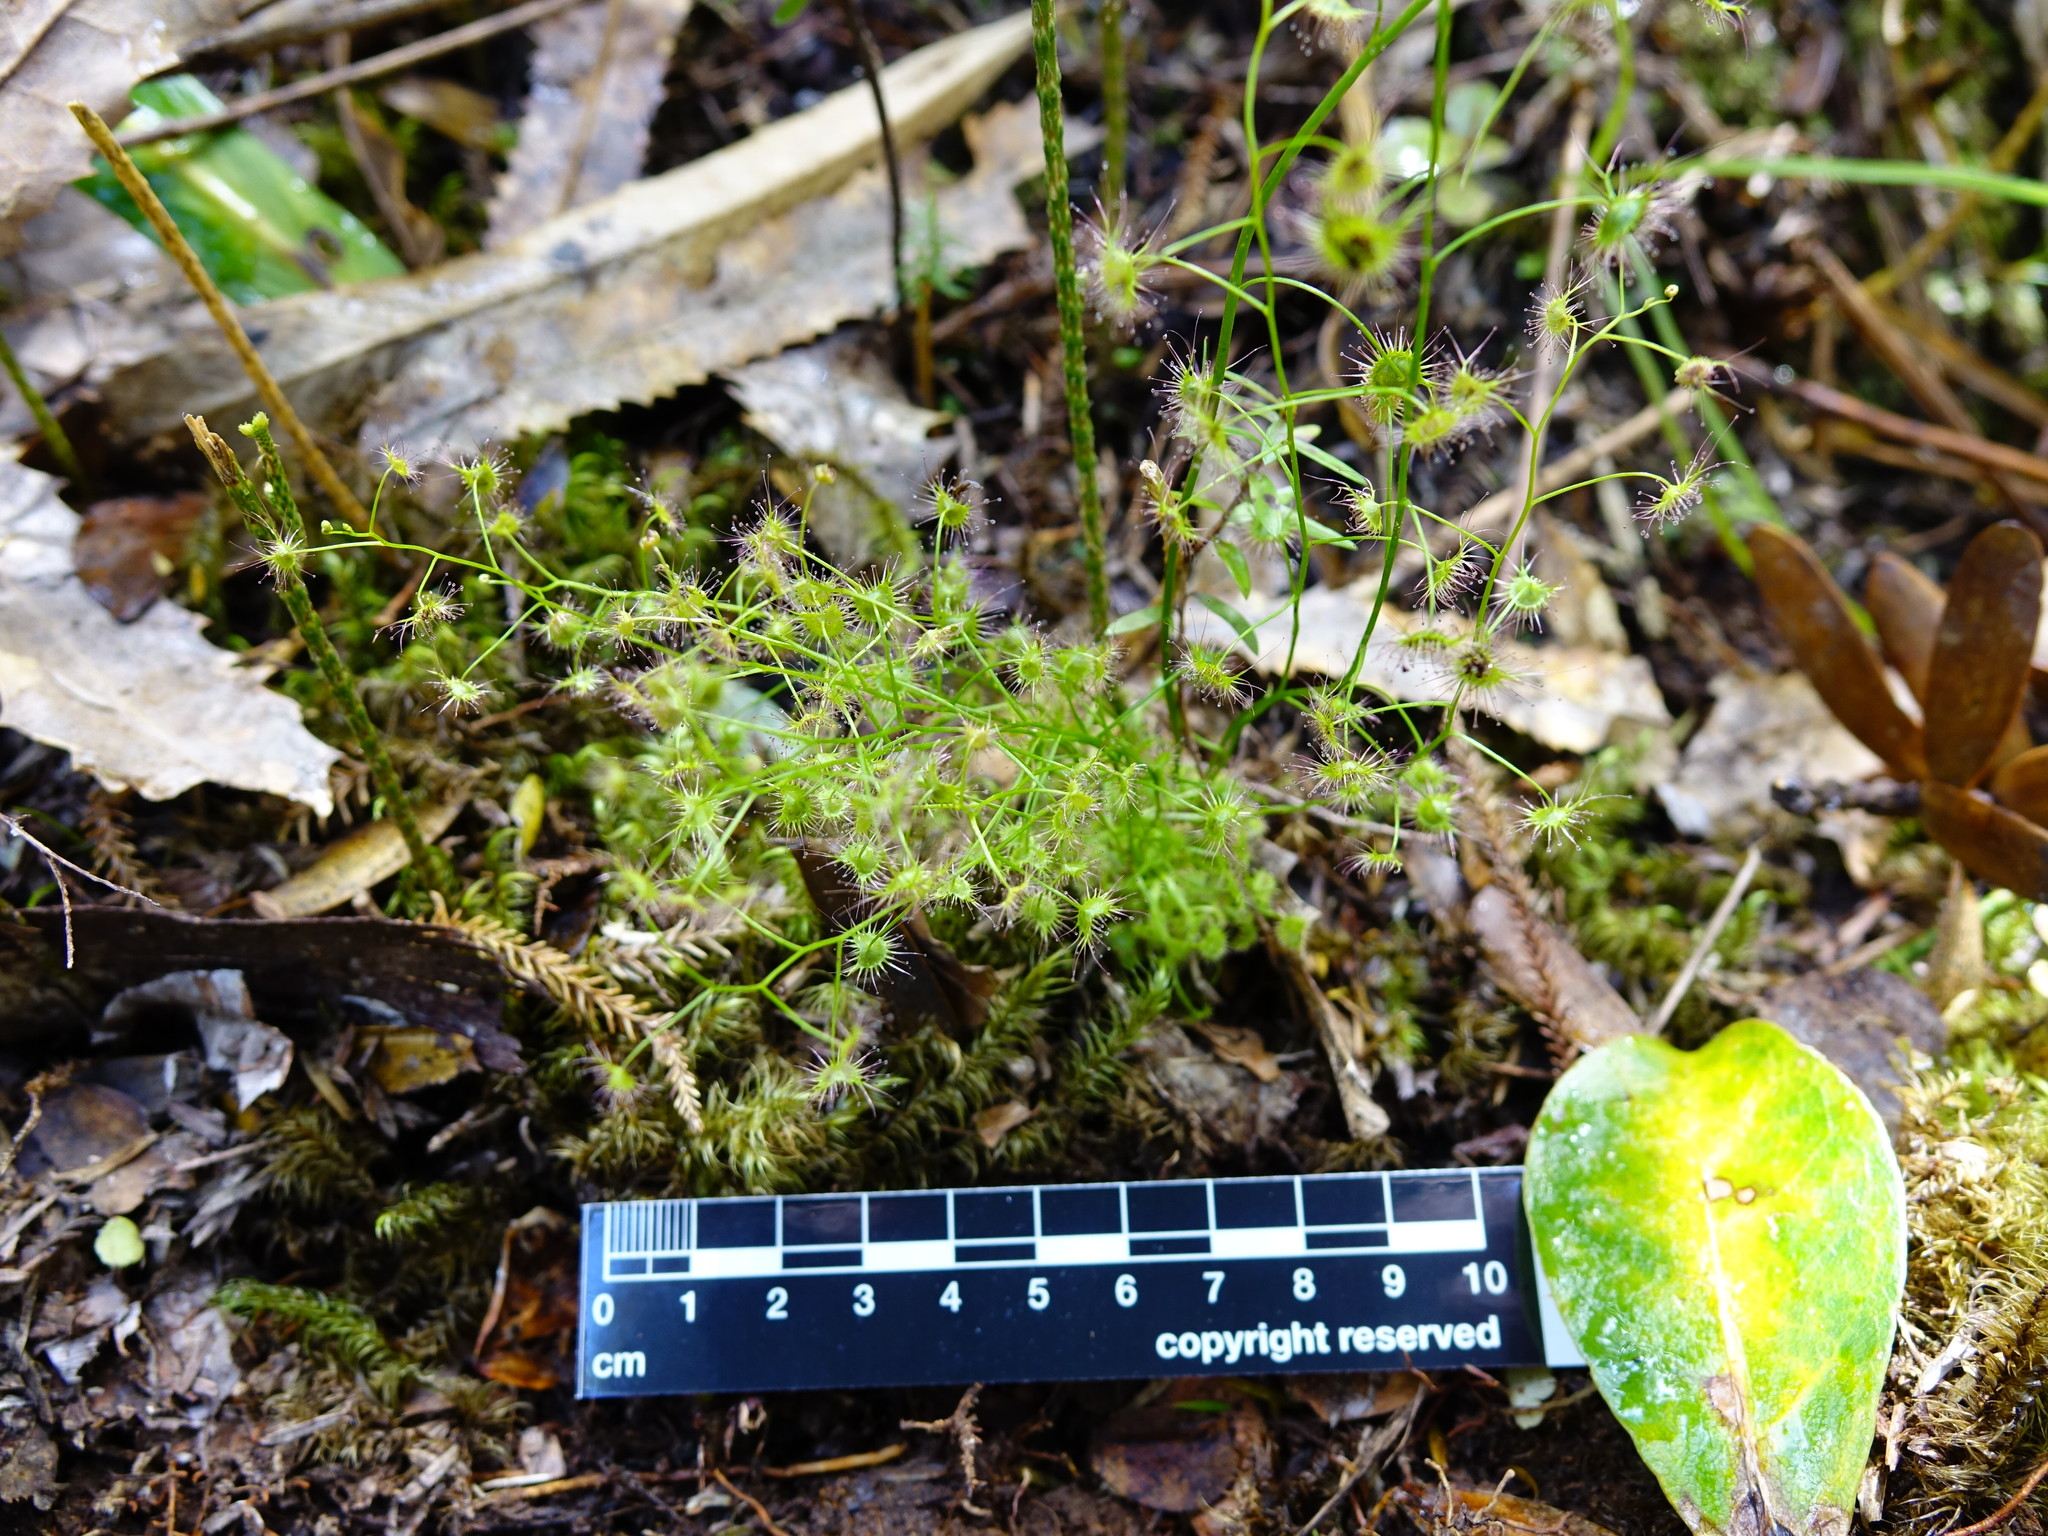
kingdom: Plantae
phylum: Tracheophyta
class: Magnoliopsida
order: Caryophyllales
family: Droseraceae
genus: Drosera
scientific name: Drosera peltata
